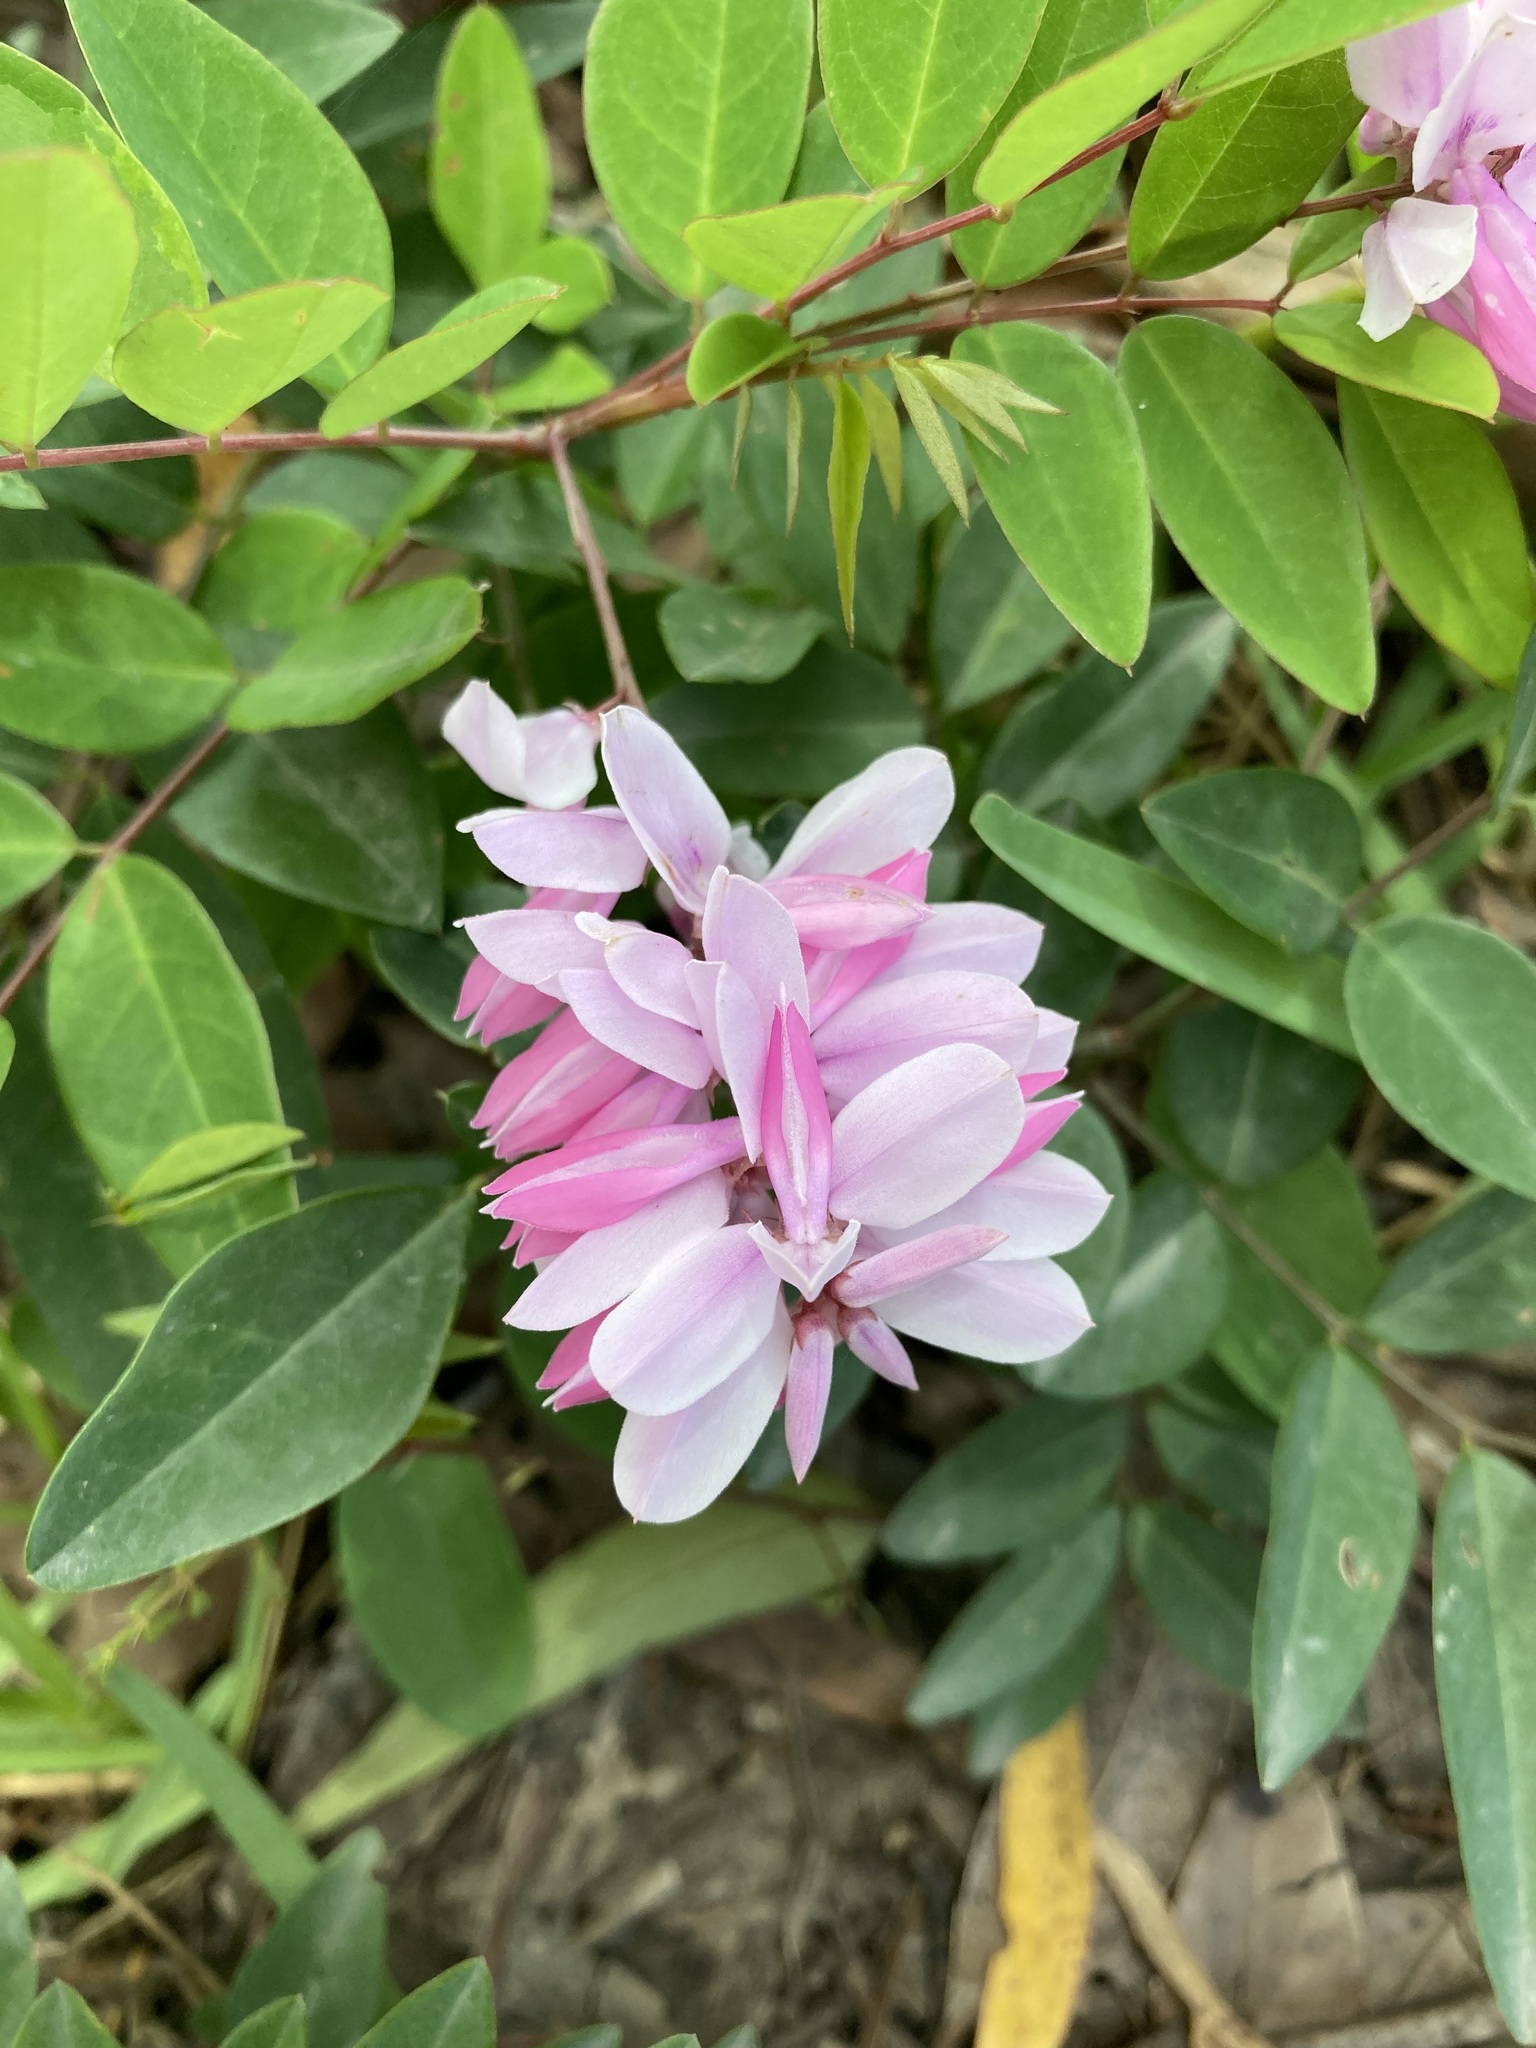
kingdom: Plantae
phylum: Tracheophyta
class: Magnoliopsida
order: Fabales
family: Fabaceae
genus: Indigofera
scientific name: Indigofera incarnata
